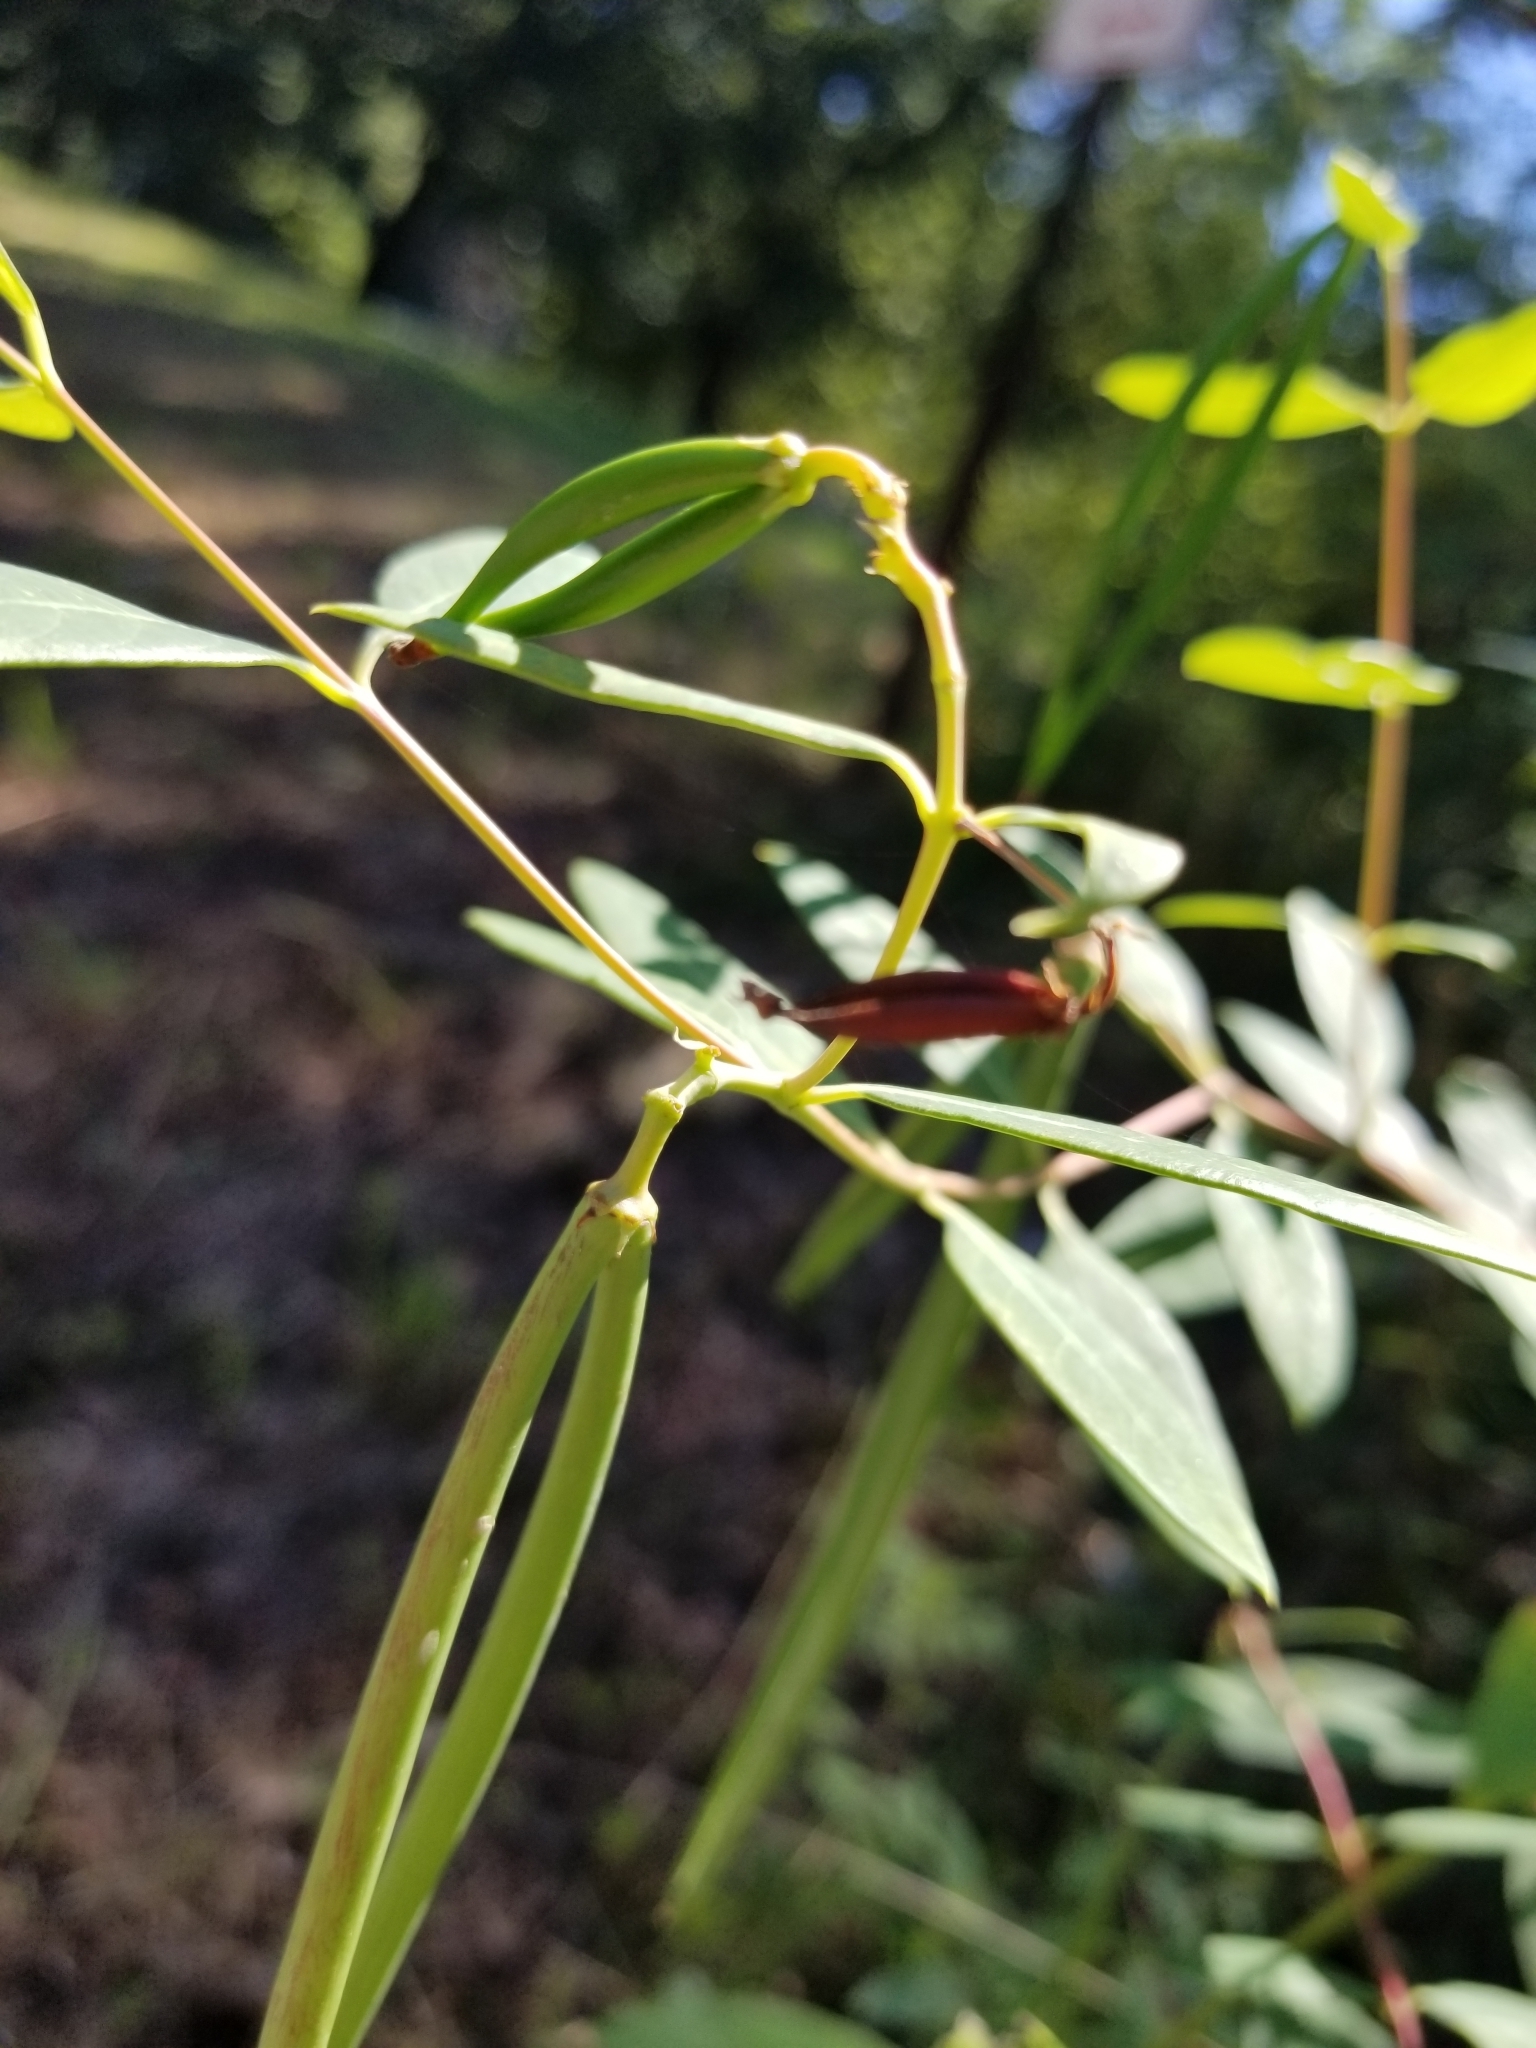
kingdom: Plantae
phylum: Tracheophyta
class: Magnoliopsida
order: Gentianales
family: Apocynaceae
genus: Apocynum
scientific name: Apocynum cannabinum
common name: Hemp dogbane
